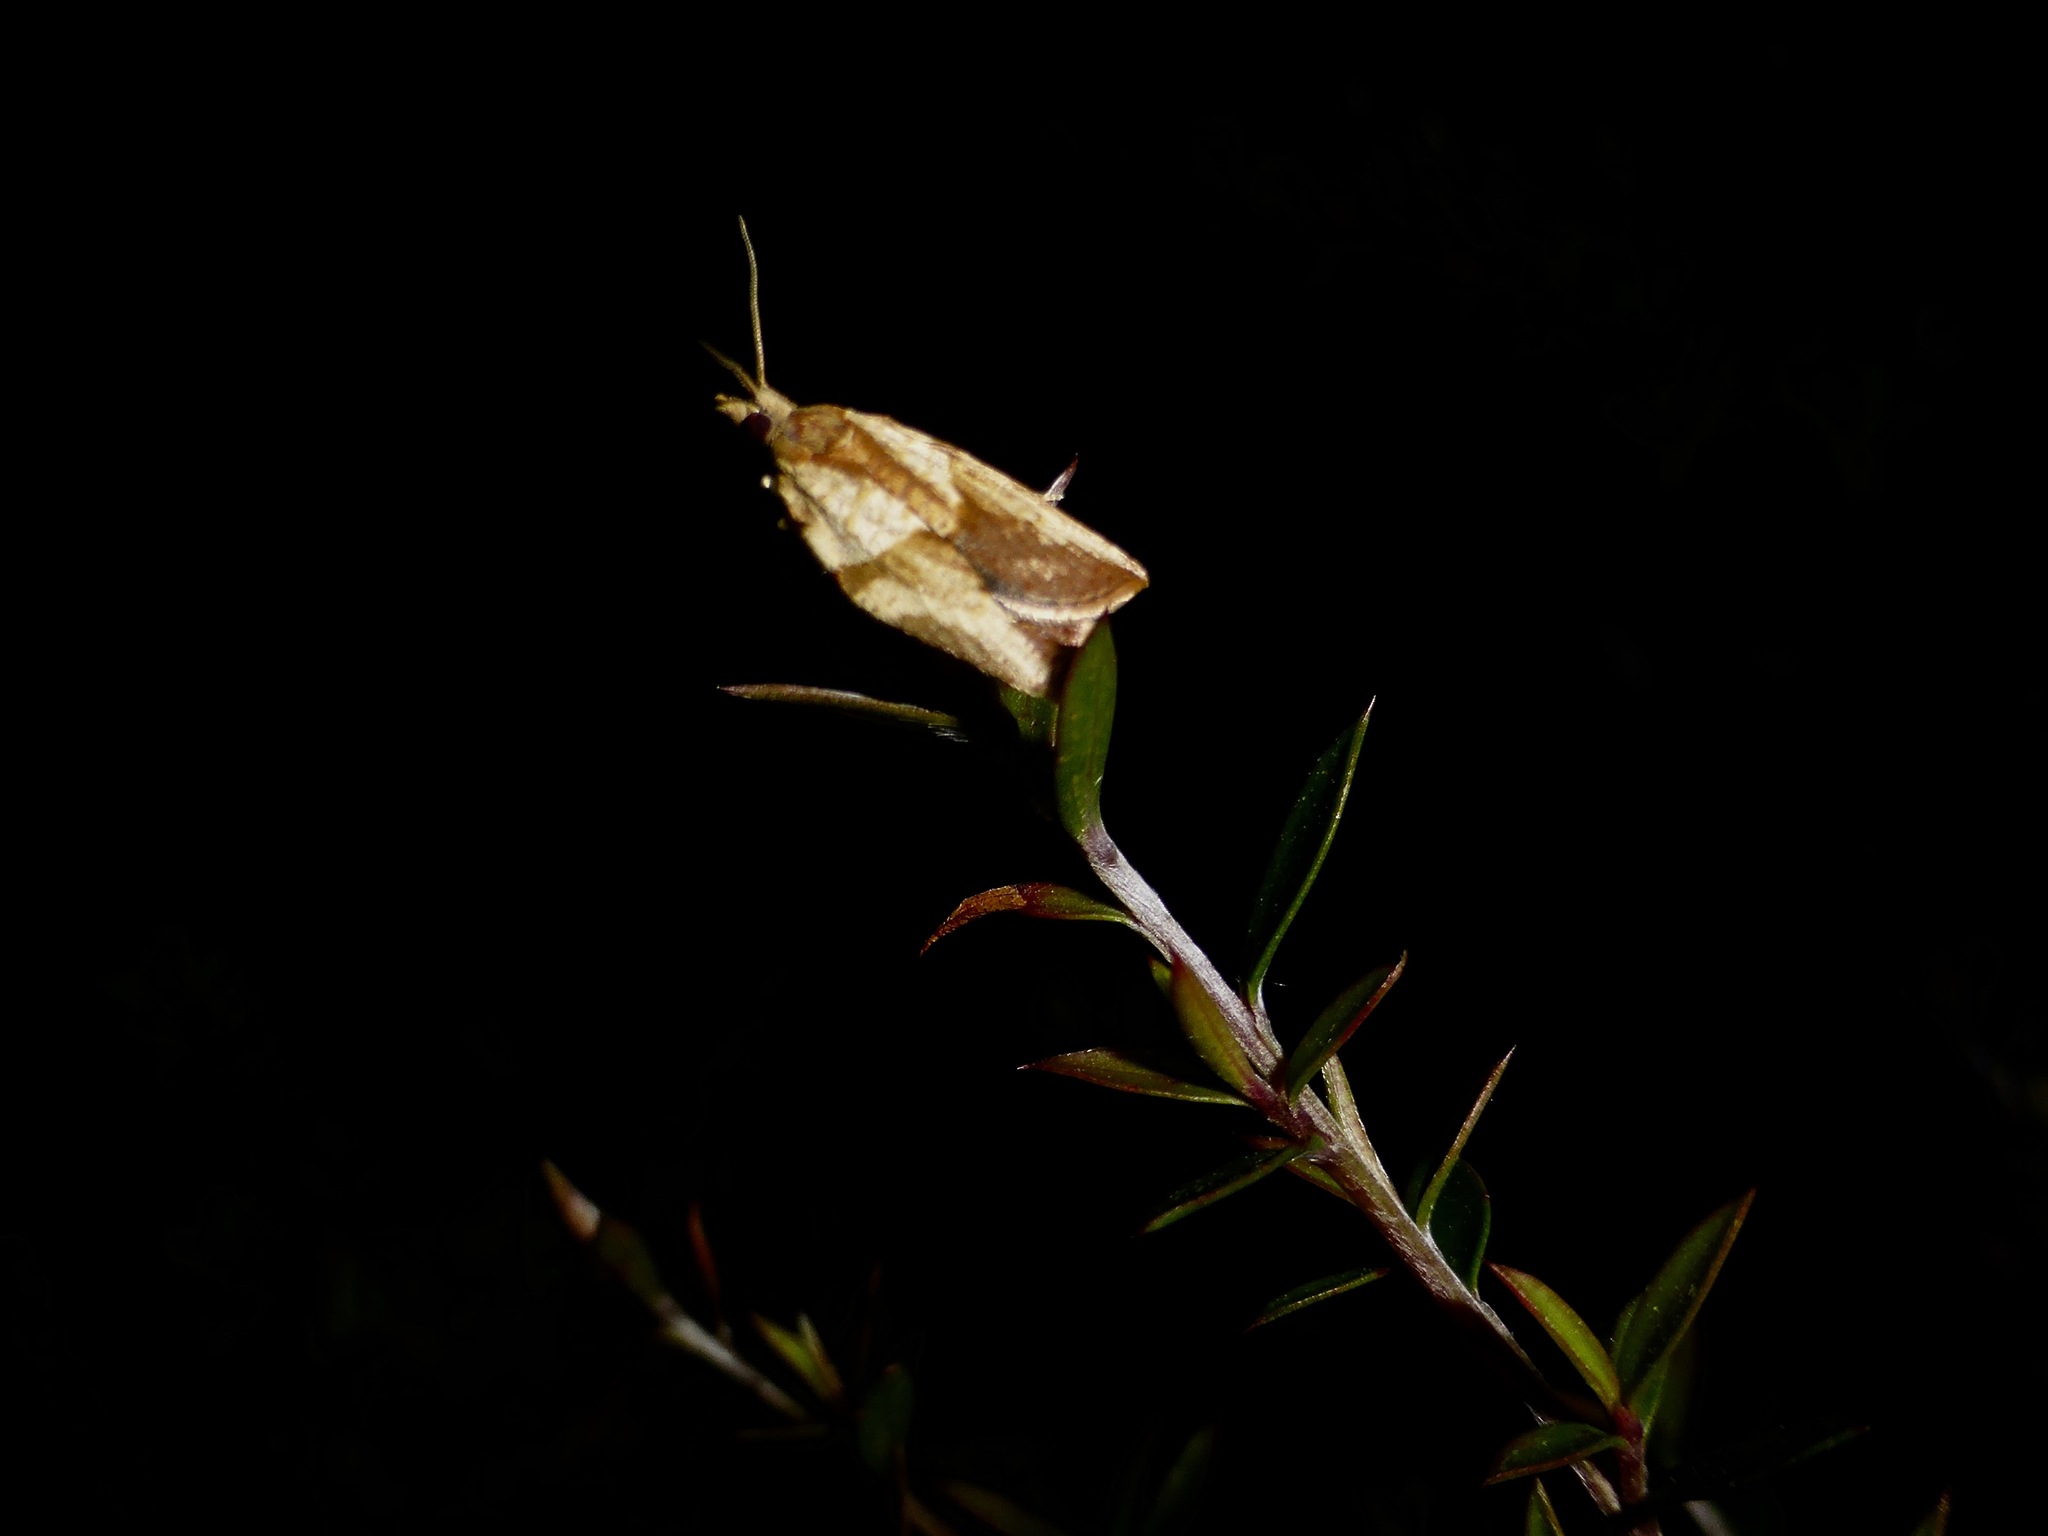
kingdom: Animalia
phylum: Arthropoda
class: Insecta
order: Lepidoptera
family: Tortricidae
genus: Epiphyas
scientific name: Epiphyas postvittana
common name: Light brown apple moth
